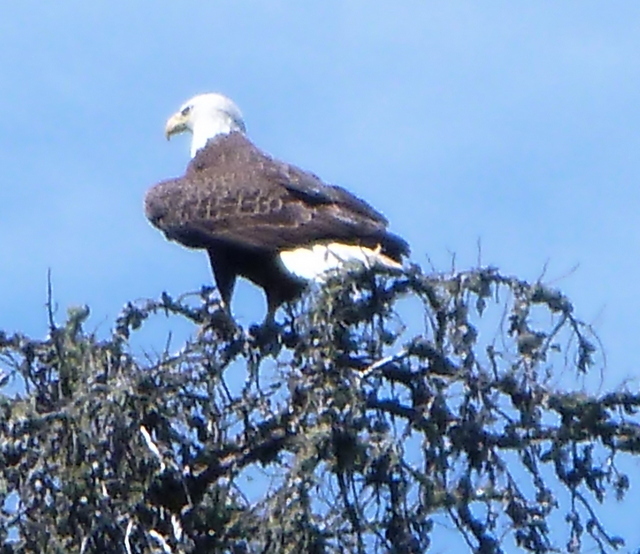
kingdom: Animalia
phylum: Chordata
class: Aves
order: Accipitriformes
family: Accipitridae
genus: Haliaeetus
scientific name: Haliaeetus leucocephalus
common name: Bald eagle
